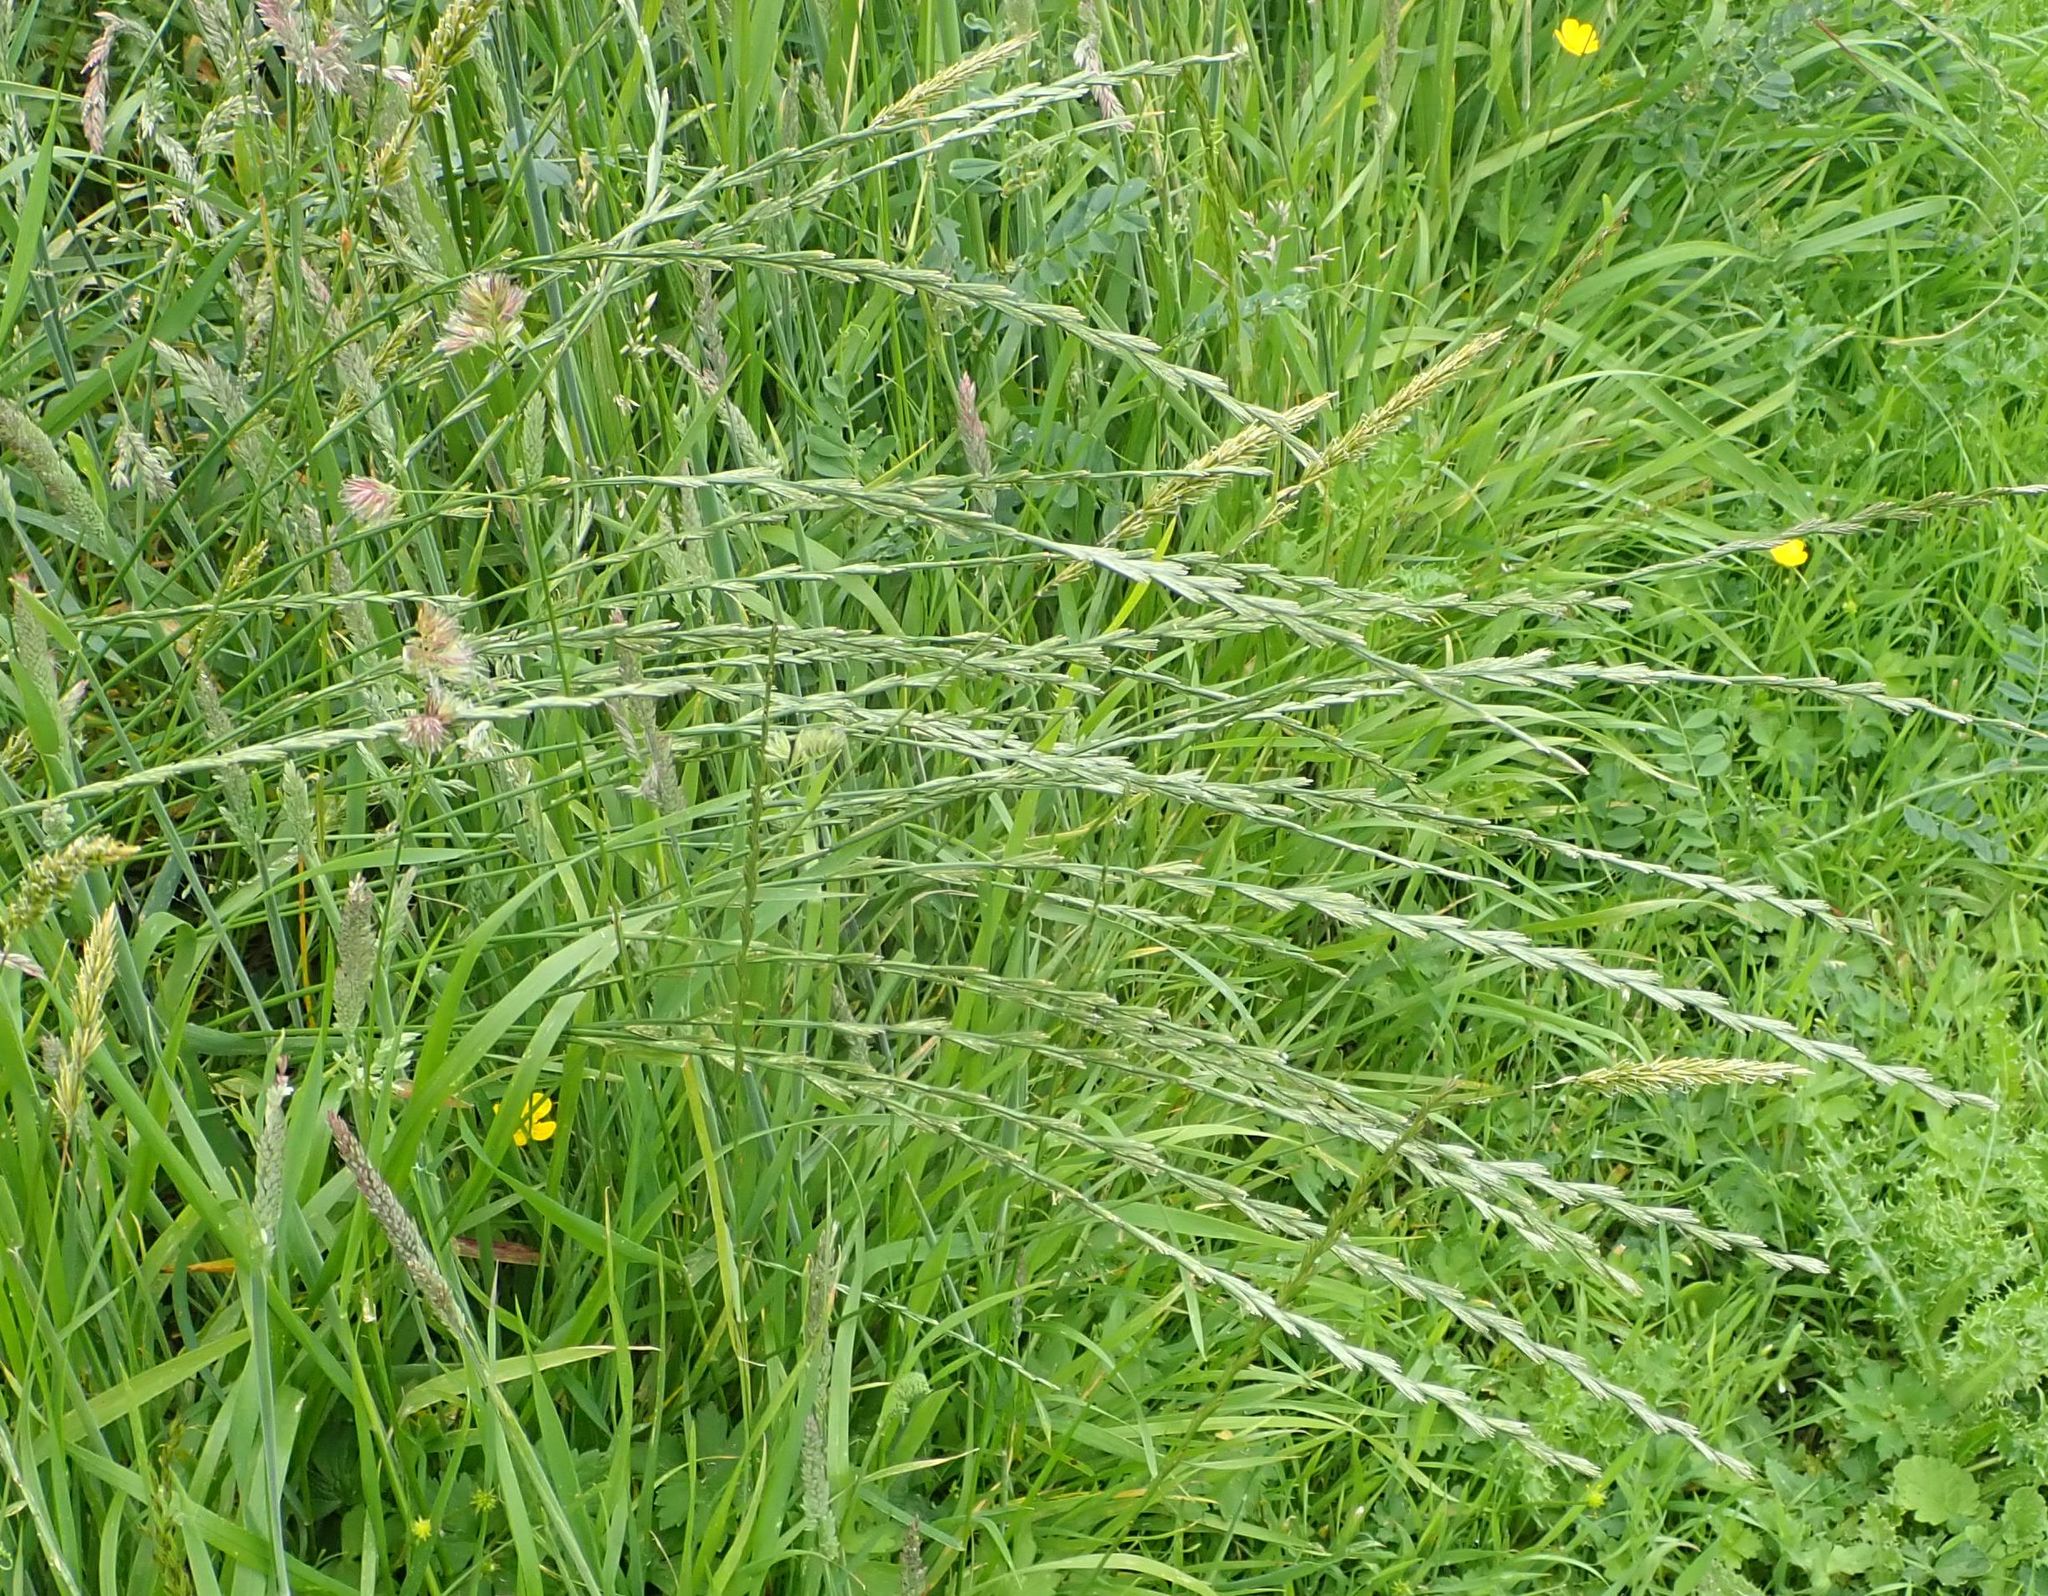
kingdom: Plantae
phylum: Tracheophyta
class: Liliopsida
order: Poales
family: Poaceae
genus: Lolium
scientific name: Lolium perenne
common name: Perennial ryegrass
